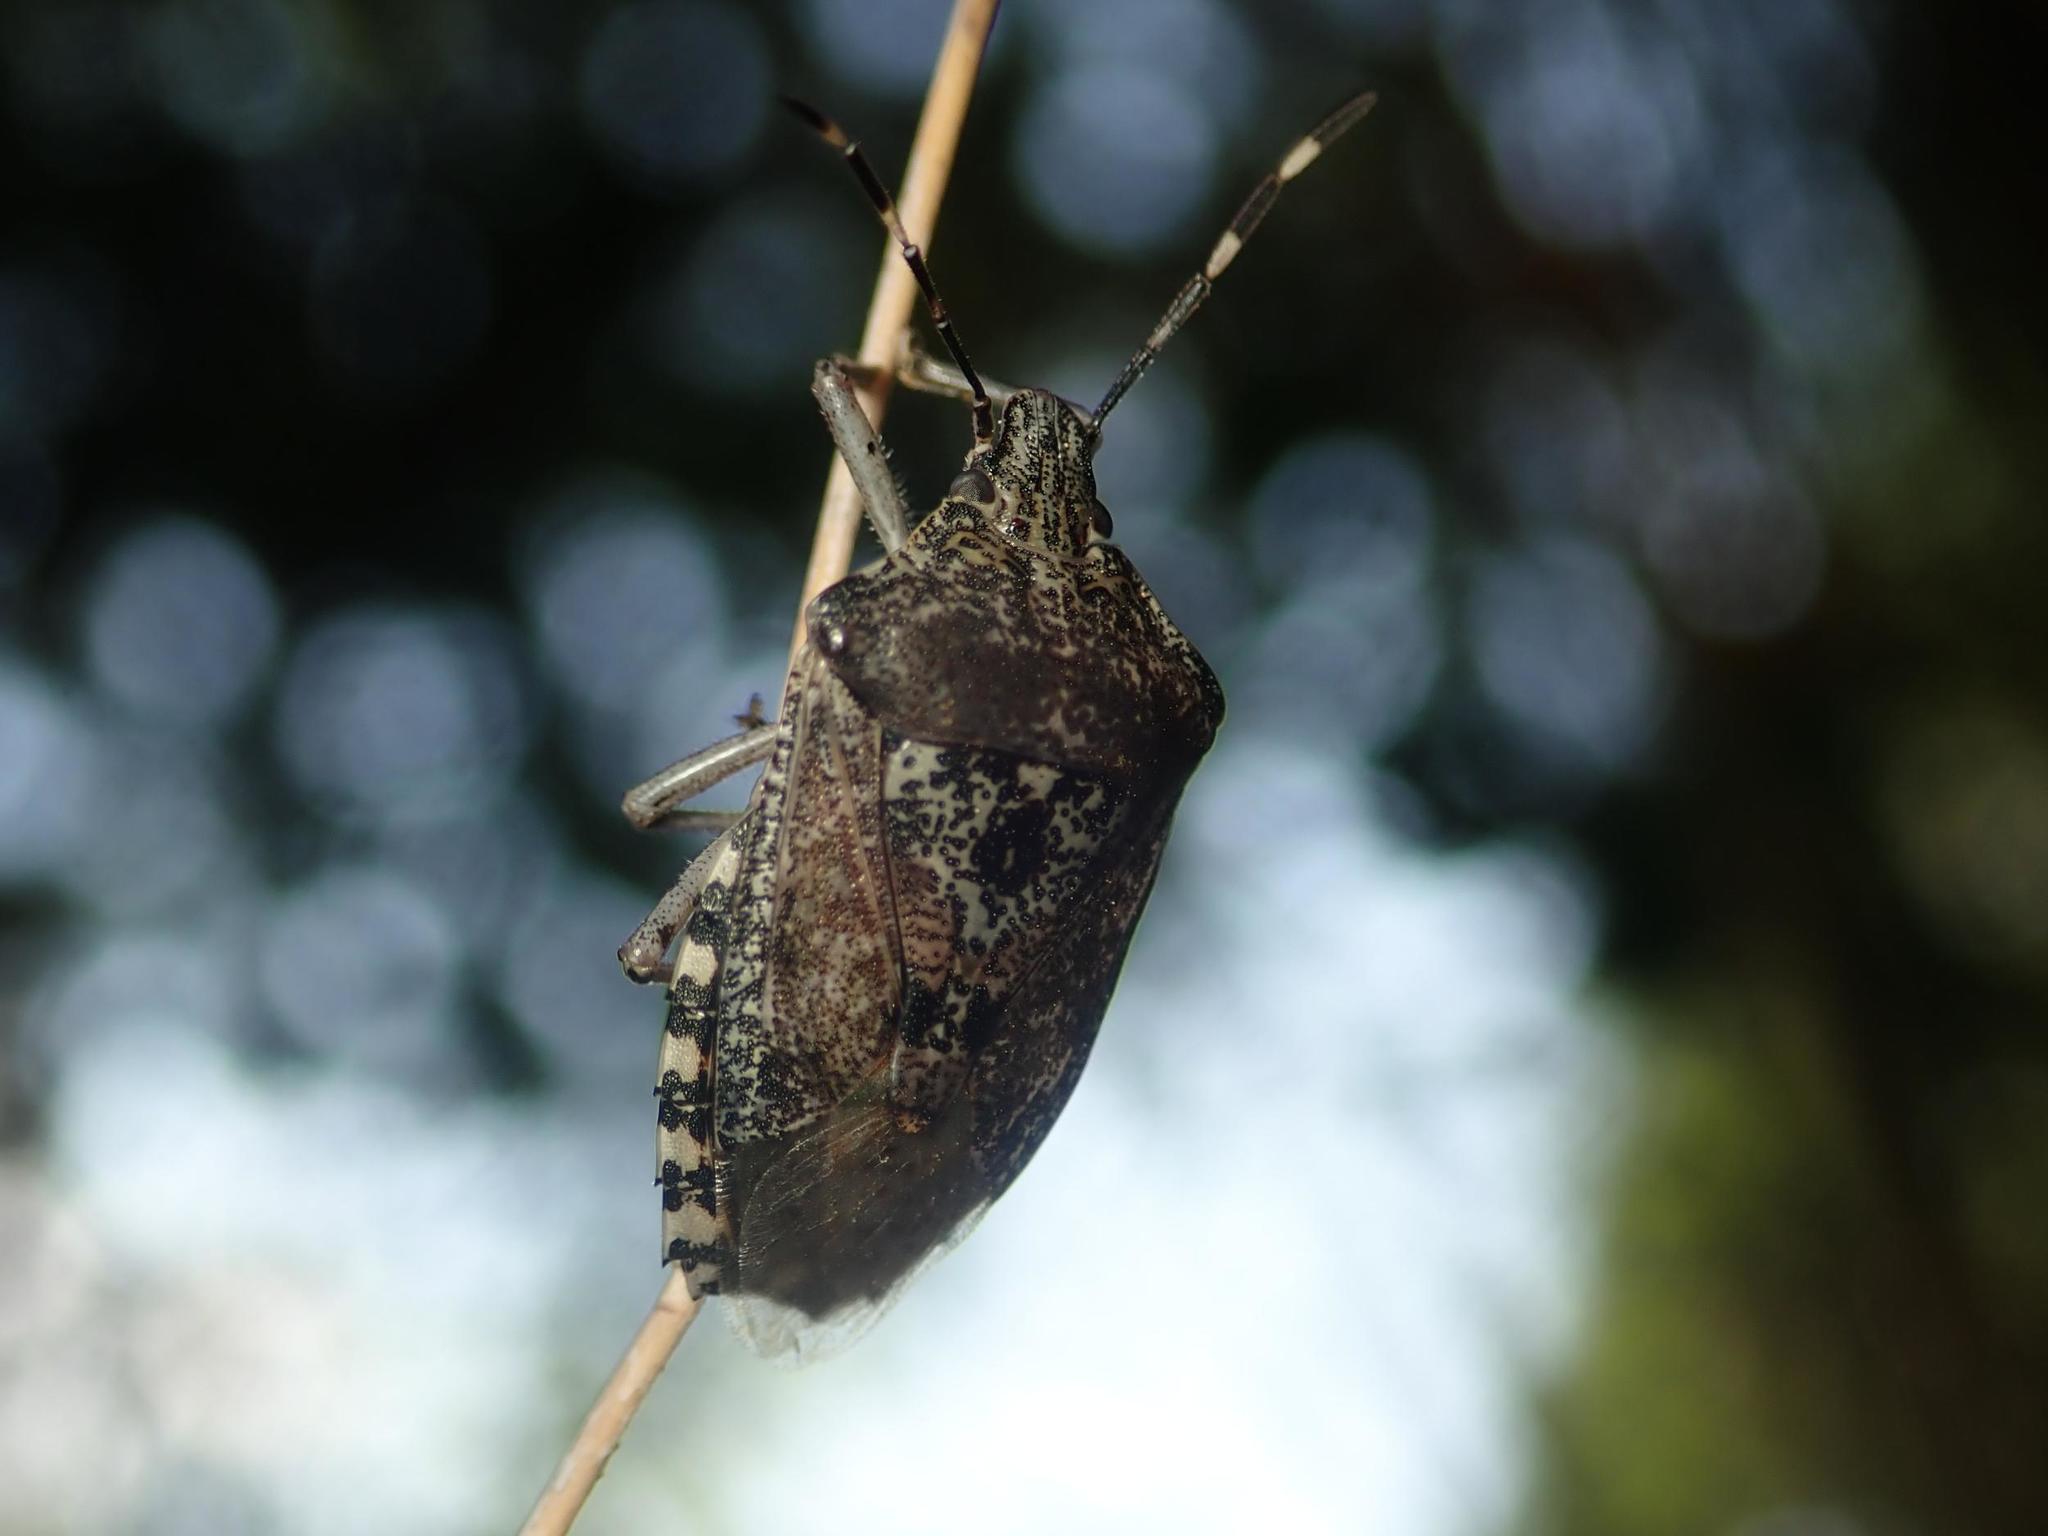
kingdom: Animalia
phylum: Arthropoda
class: Insecta
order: Hemiptera
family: Pentatomidae
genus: Rhaphigaster
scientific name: Rhaphigaster nebulosa
